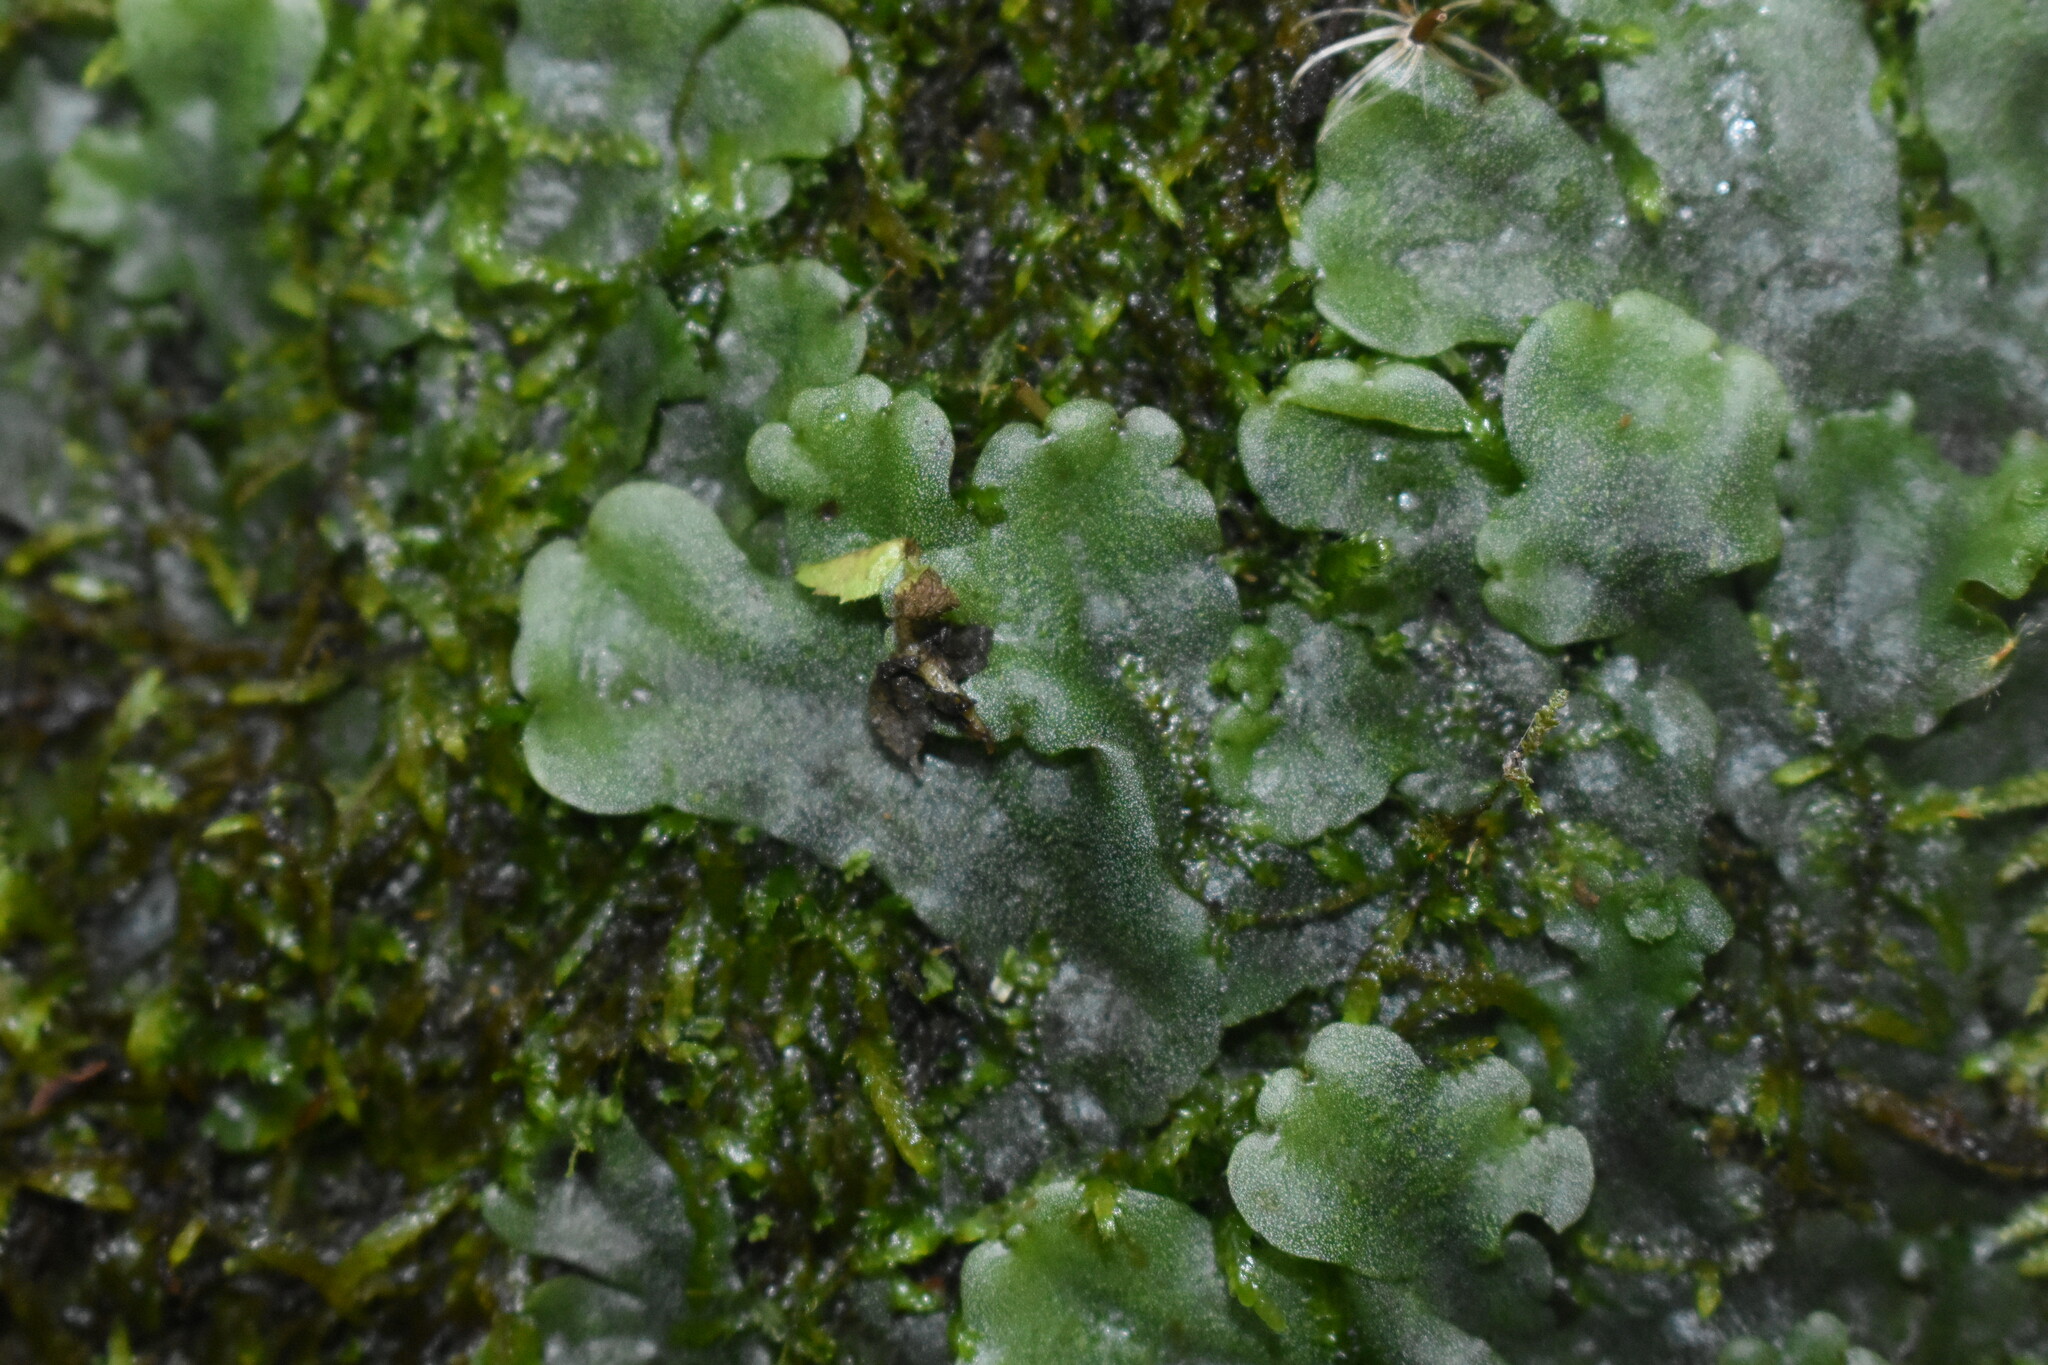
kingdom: Plantae
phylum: Marchantiophyta
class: Marchantiopsida
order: Marchantiales
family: Monocleaceae
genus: Monoclea
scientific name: Monoclea gottschei
